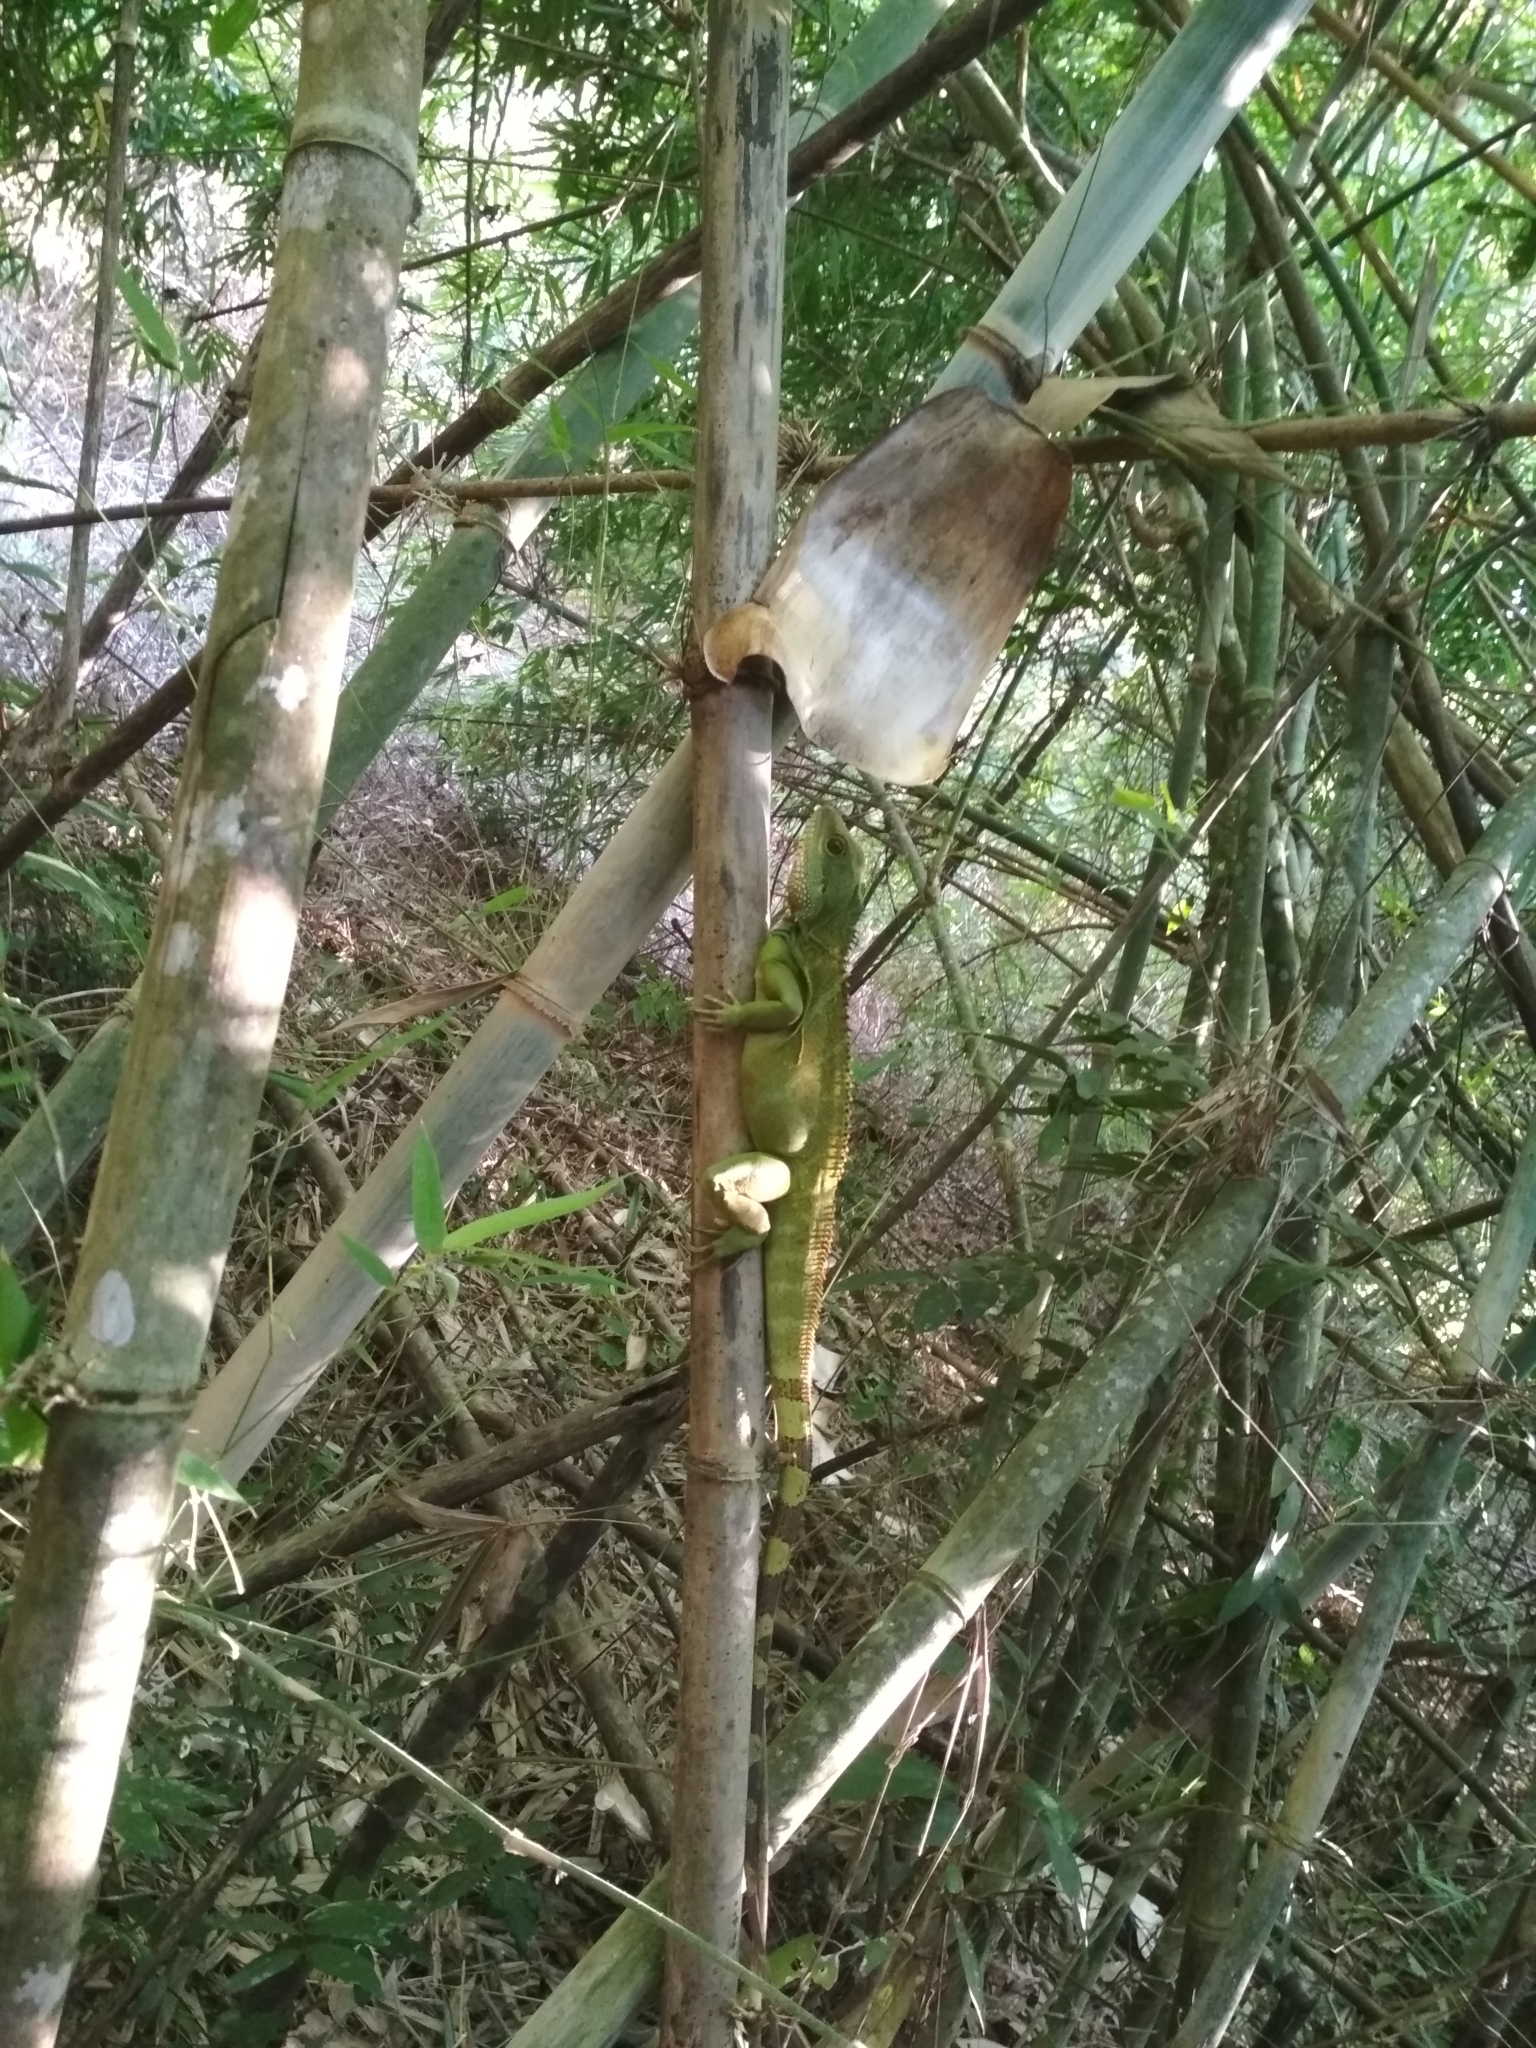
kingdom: Animalia
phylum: Chordata
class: Squamata
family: Agamidae
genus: Physignathus
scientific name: Physignathus cocincinus
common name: Asian water dragon
